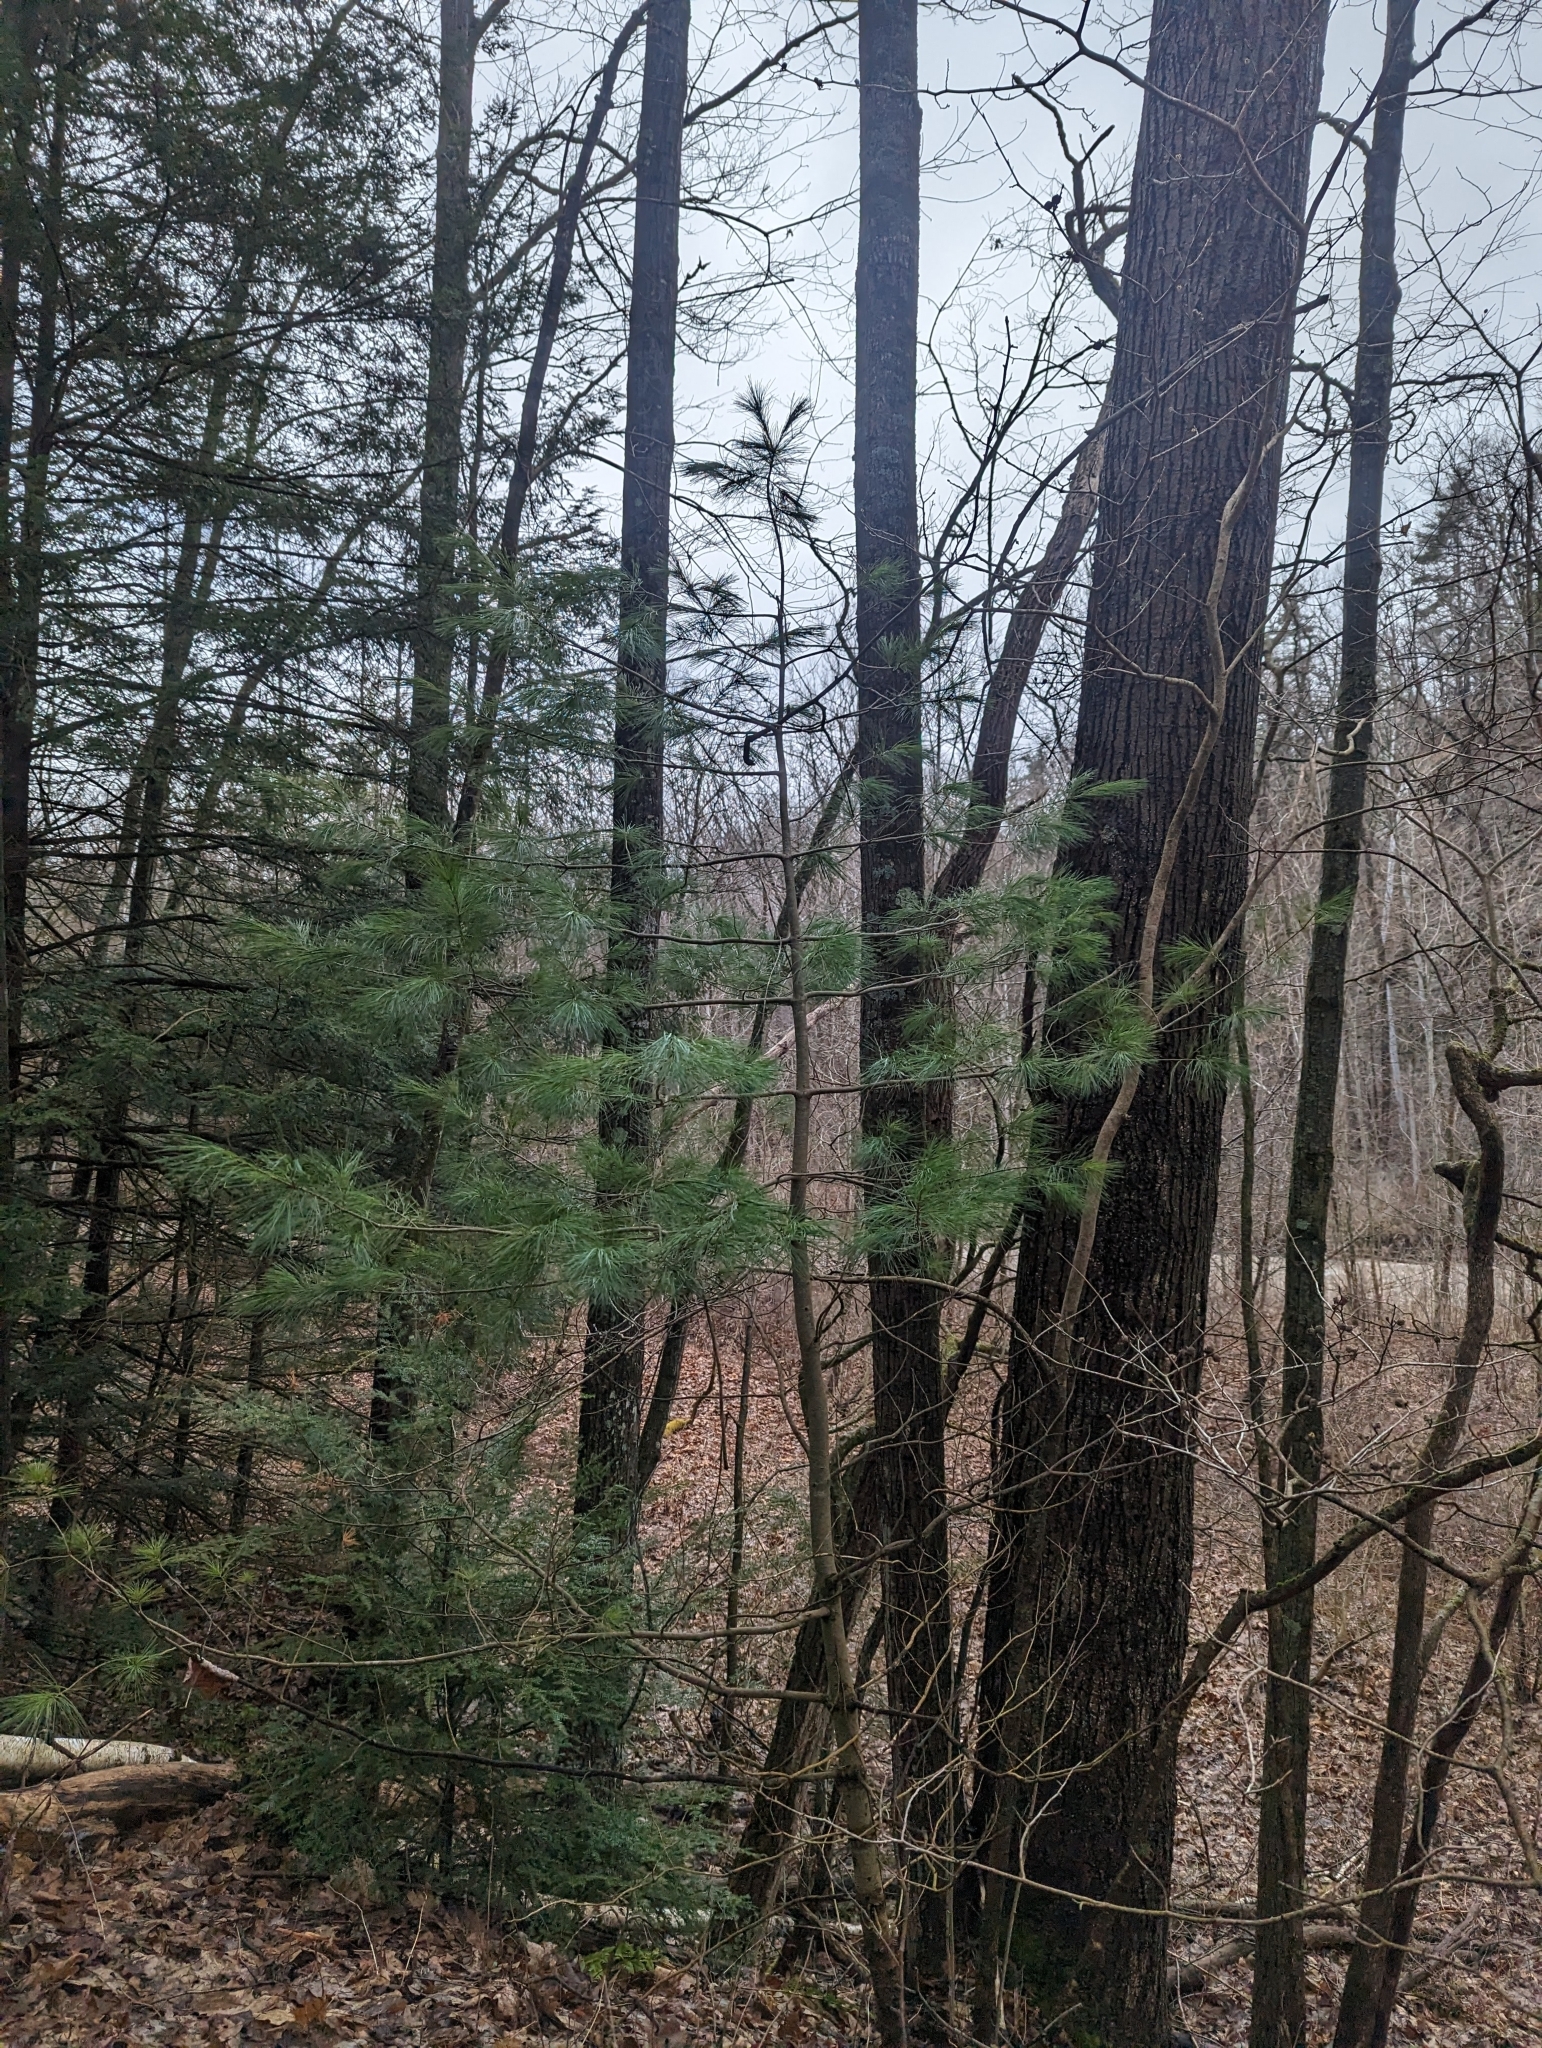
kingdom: Plantae
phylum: Tracheophyta
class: Pinopsida
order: Pinales
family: Pinaceae
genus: Pinus
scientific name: Pinus strobus
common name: Weymouth pine
